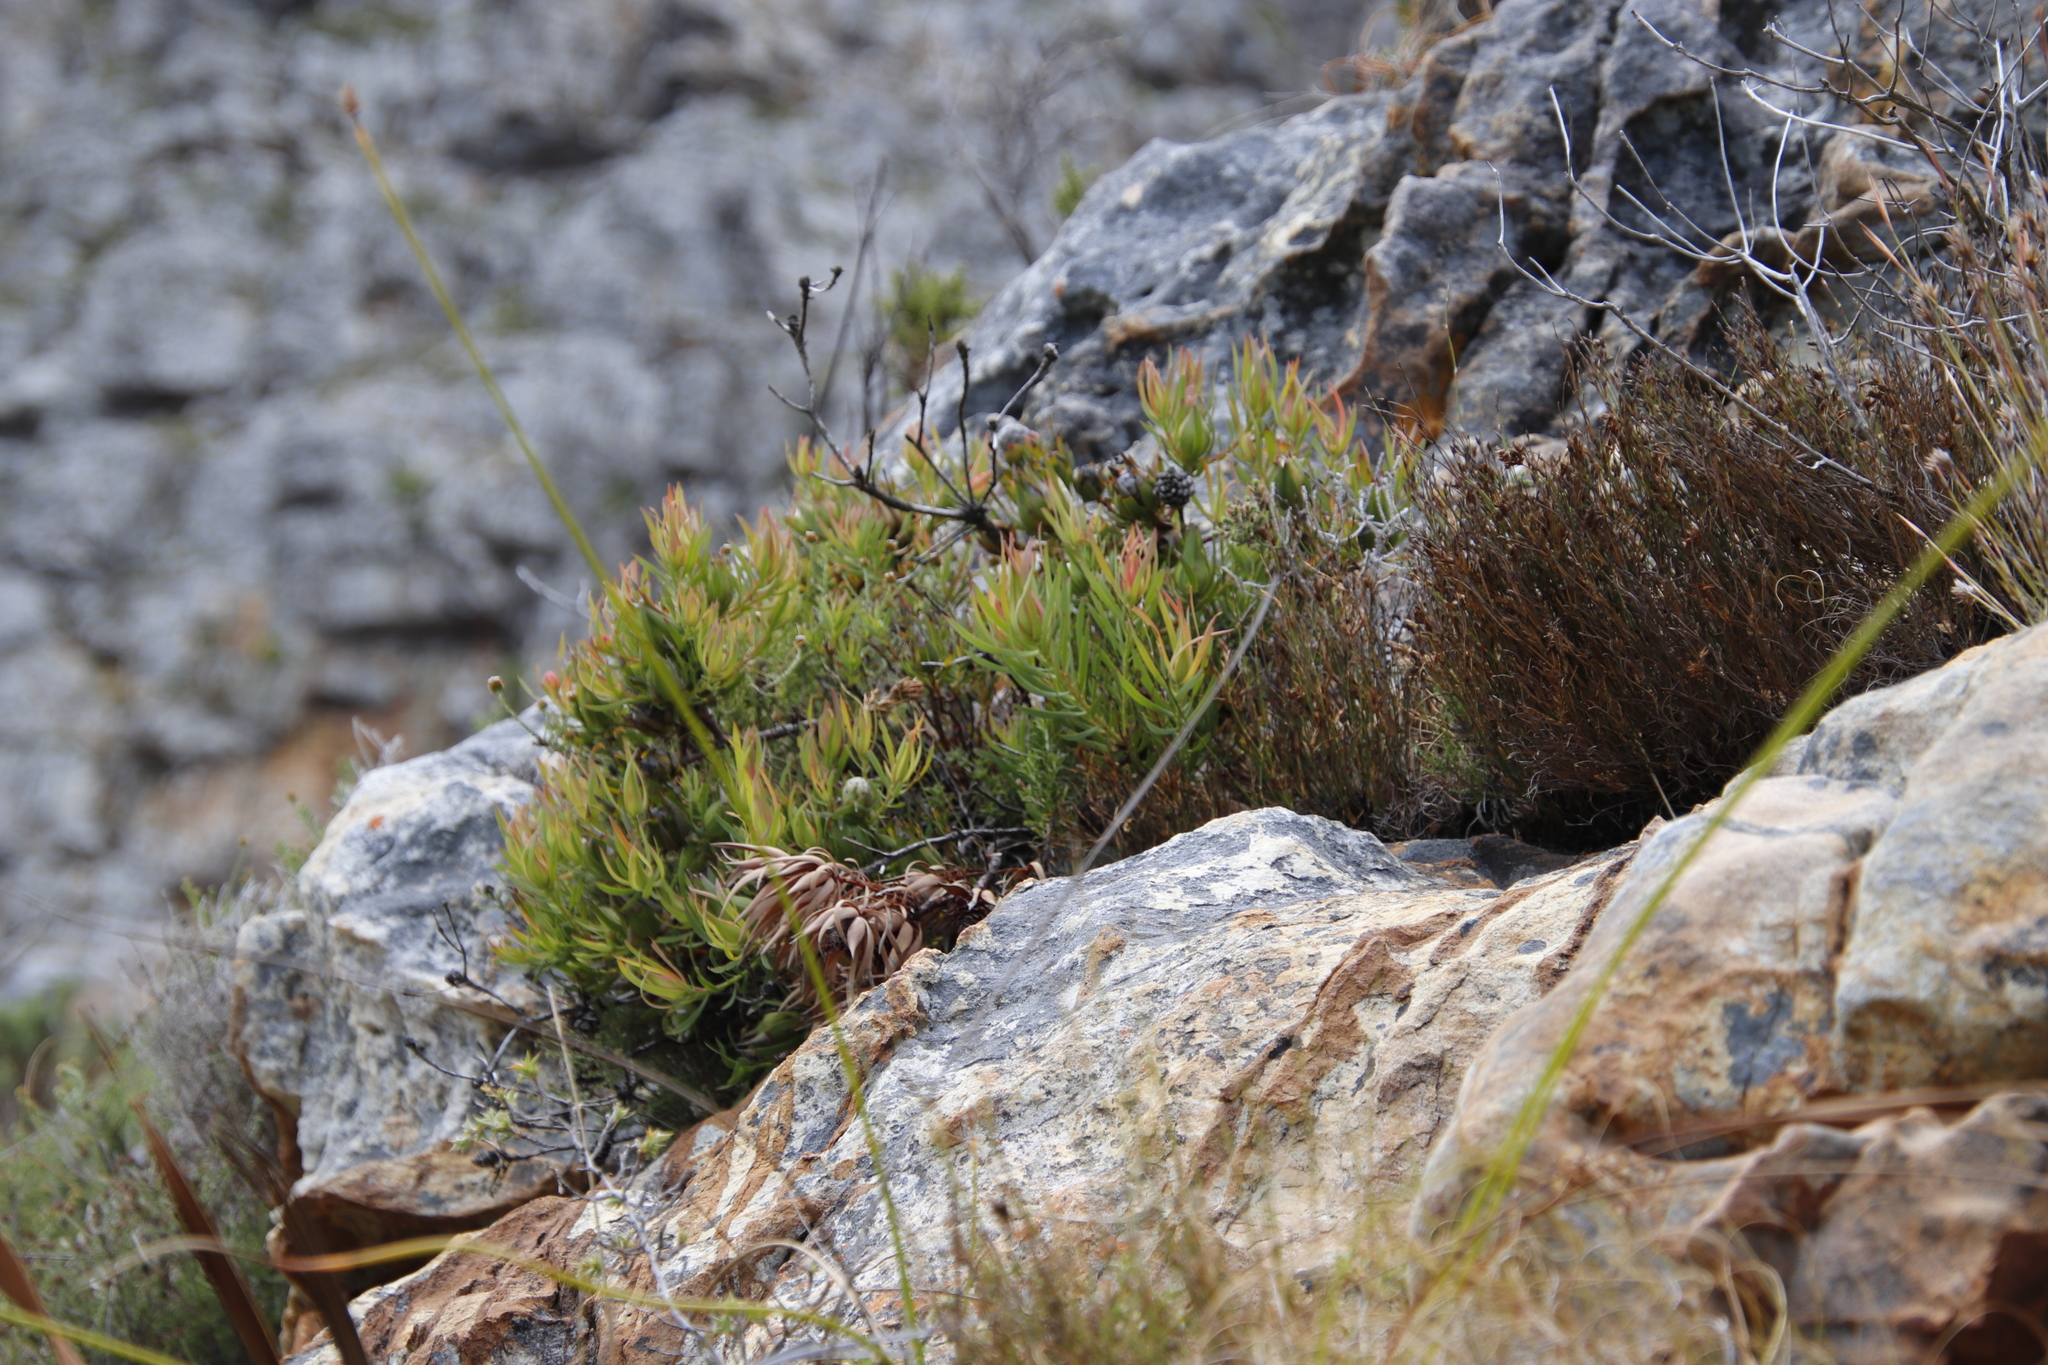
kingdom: Plantae
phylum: Tracheophyta
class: Magnoliopsida
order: Proteales
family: Proteaceae
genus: Leucadendron
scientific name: Leucadendron salignum
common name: Common sunshine conebush
